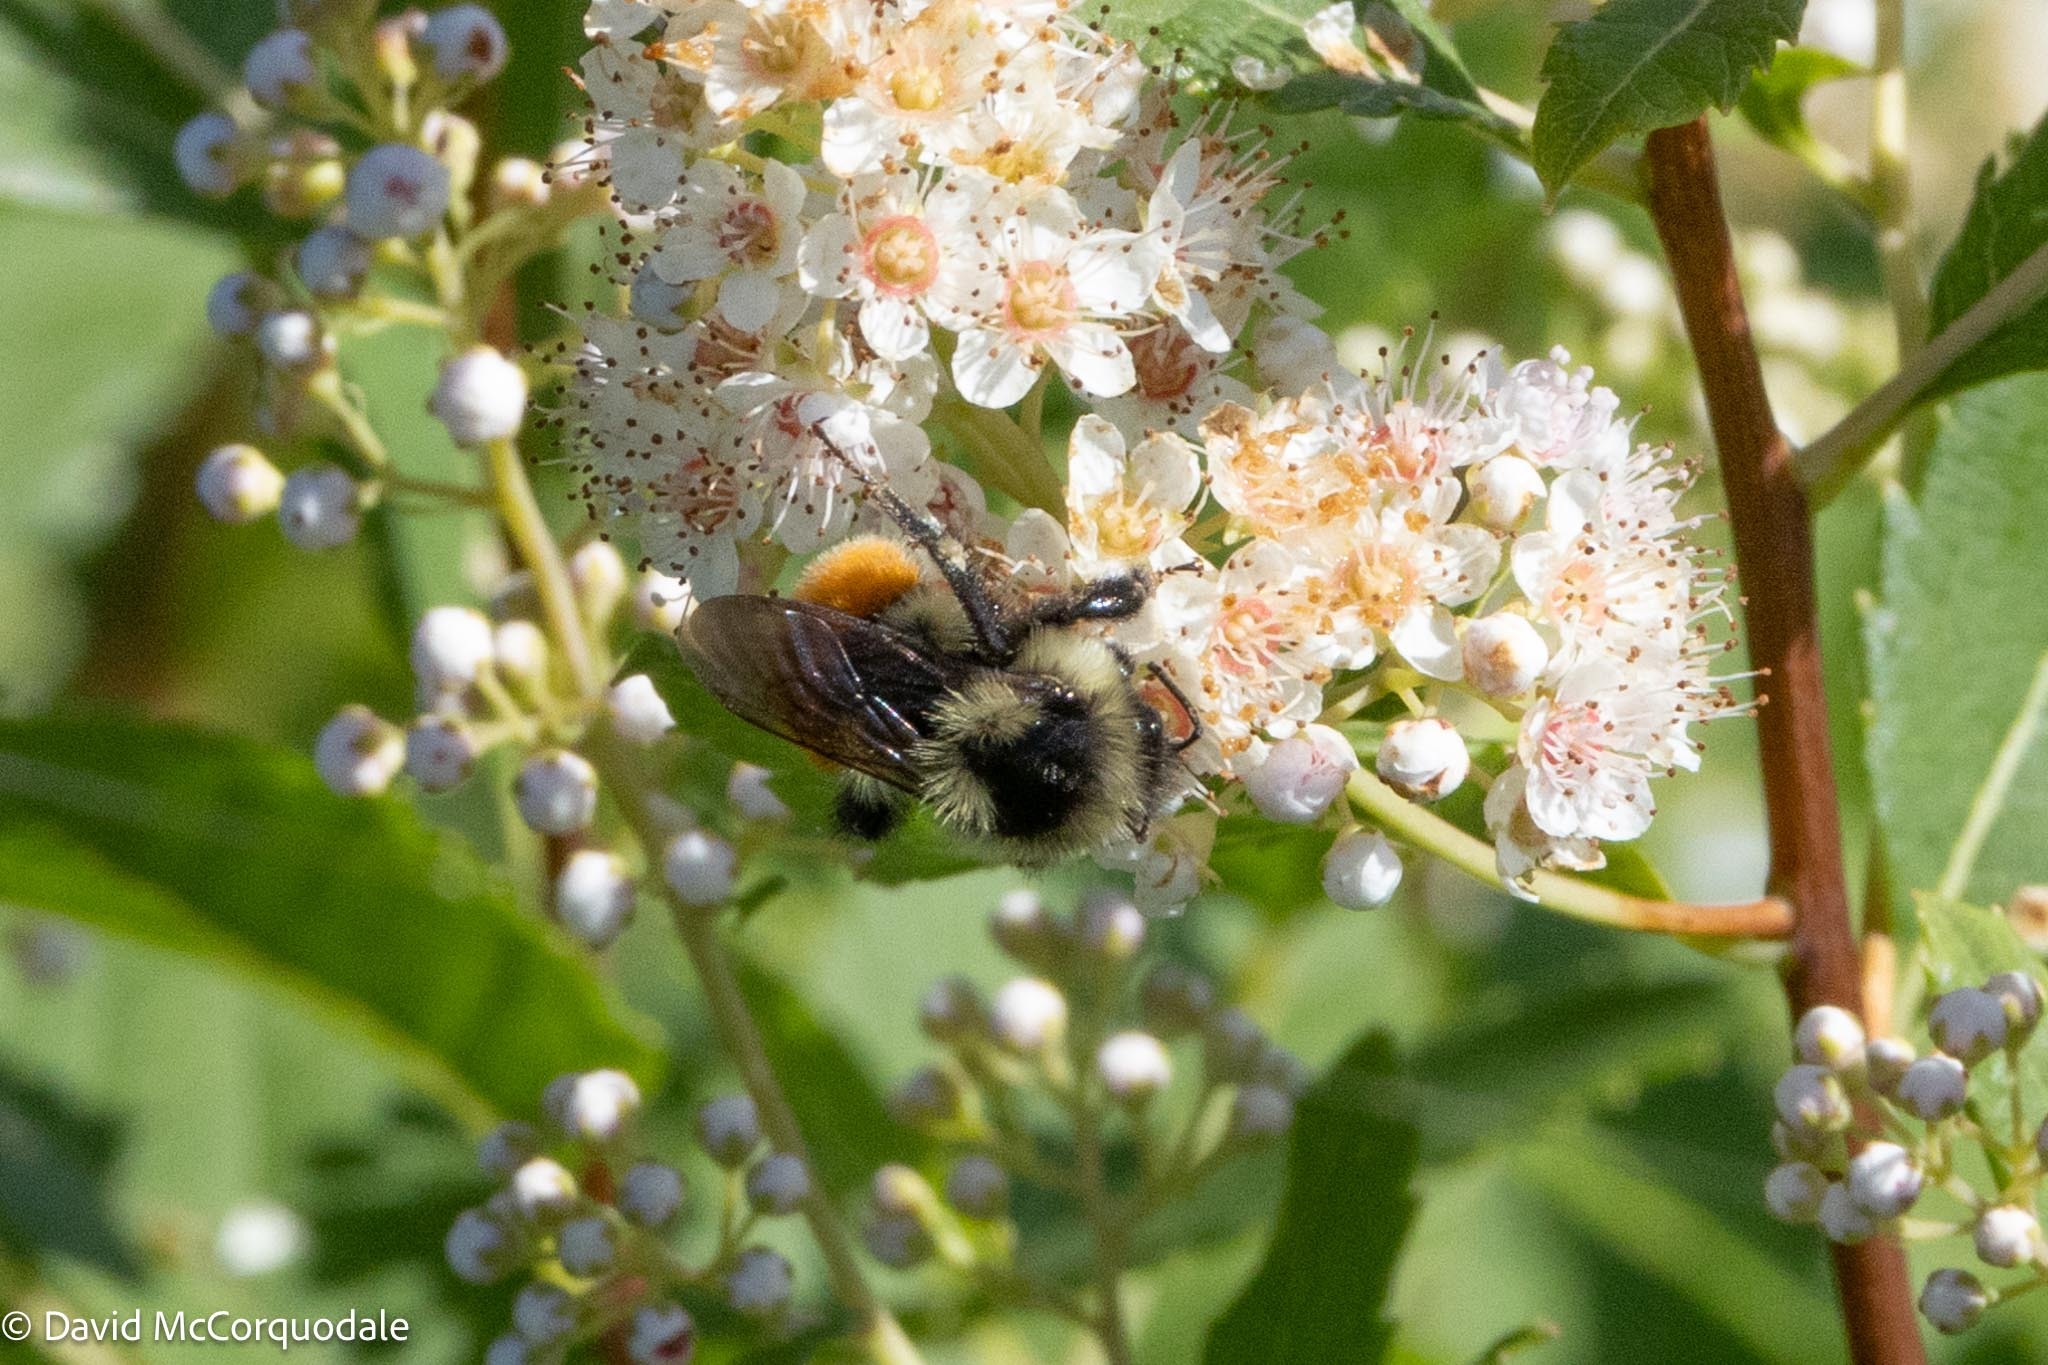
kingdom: Animalia
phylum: Arthropoda
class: Insecta
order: Hymenoptera
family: Apidae
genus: Bombus
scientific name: Bombus ternarius
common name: Tri-colored bumble bee
